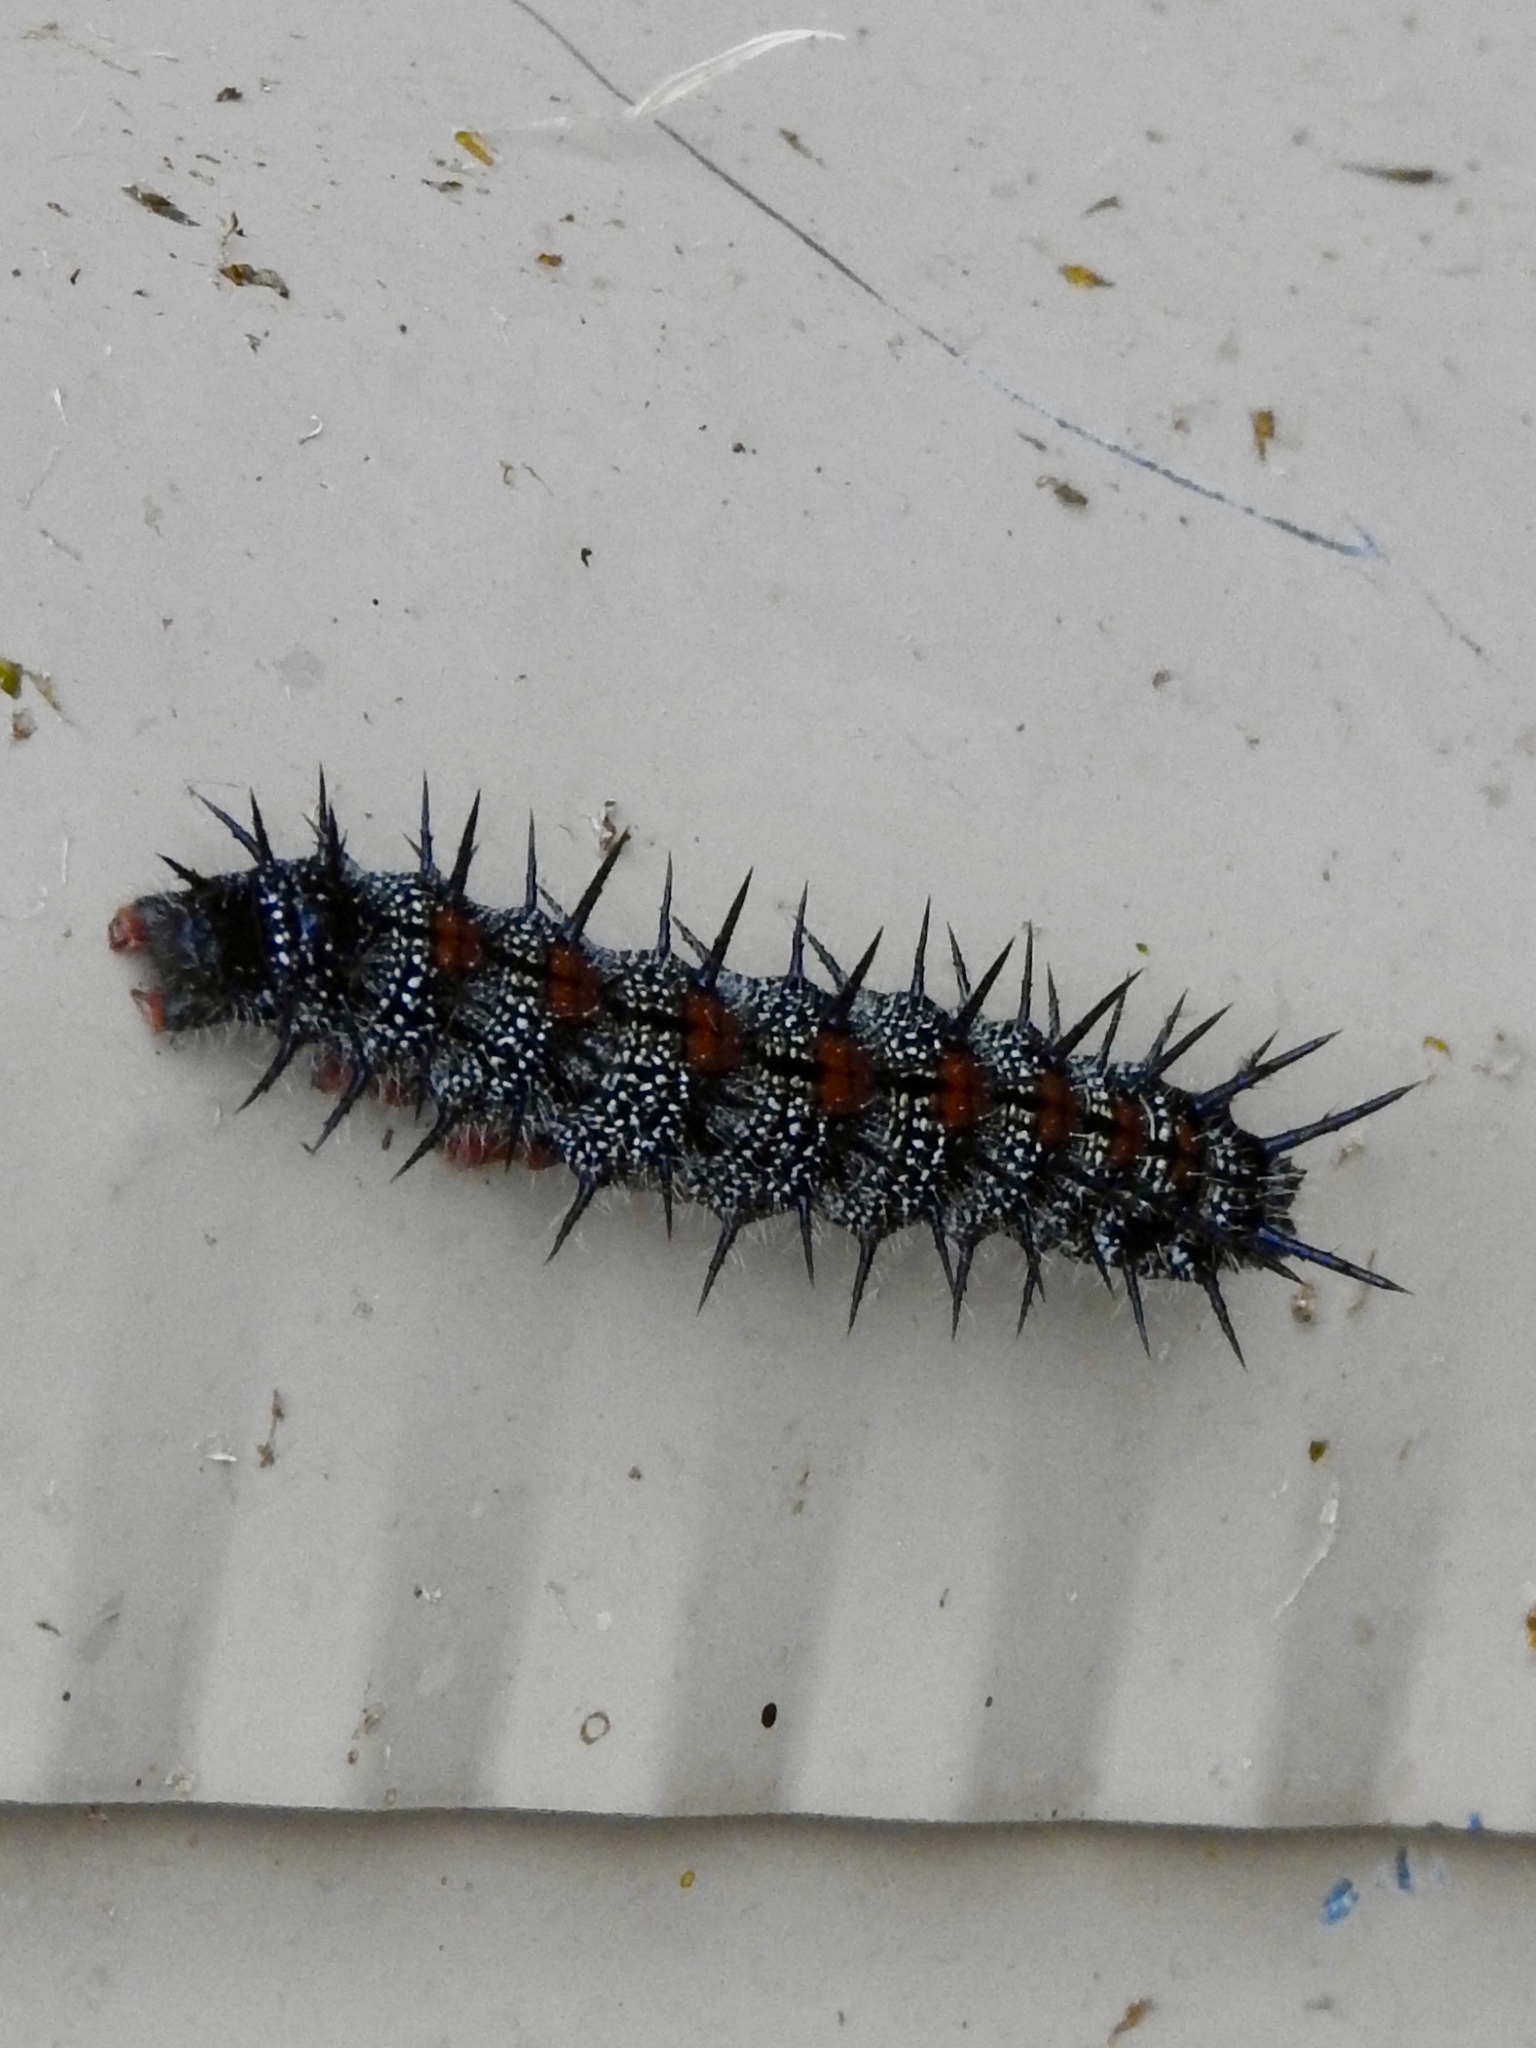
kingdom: Animalia
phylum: Arthropoda
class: Insecta
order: Lepidoptera
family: Nymphalidae
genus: Nymphalis
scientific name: Nymphalis antiopa
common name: Camberwell beauty
